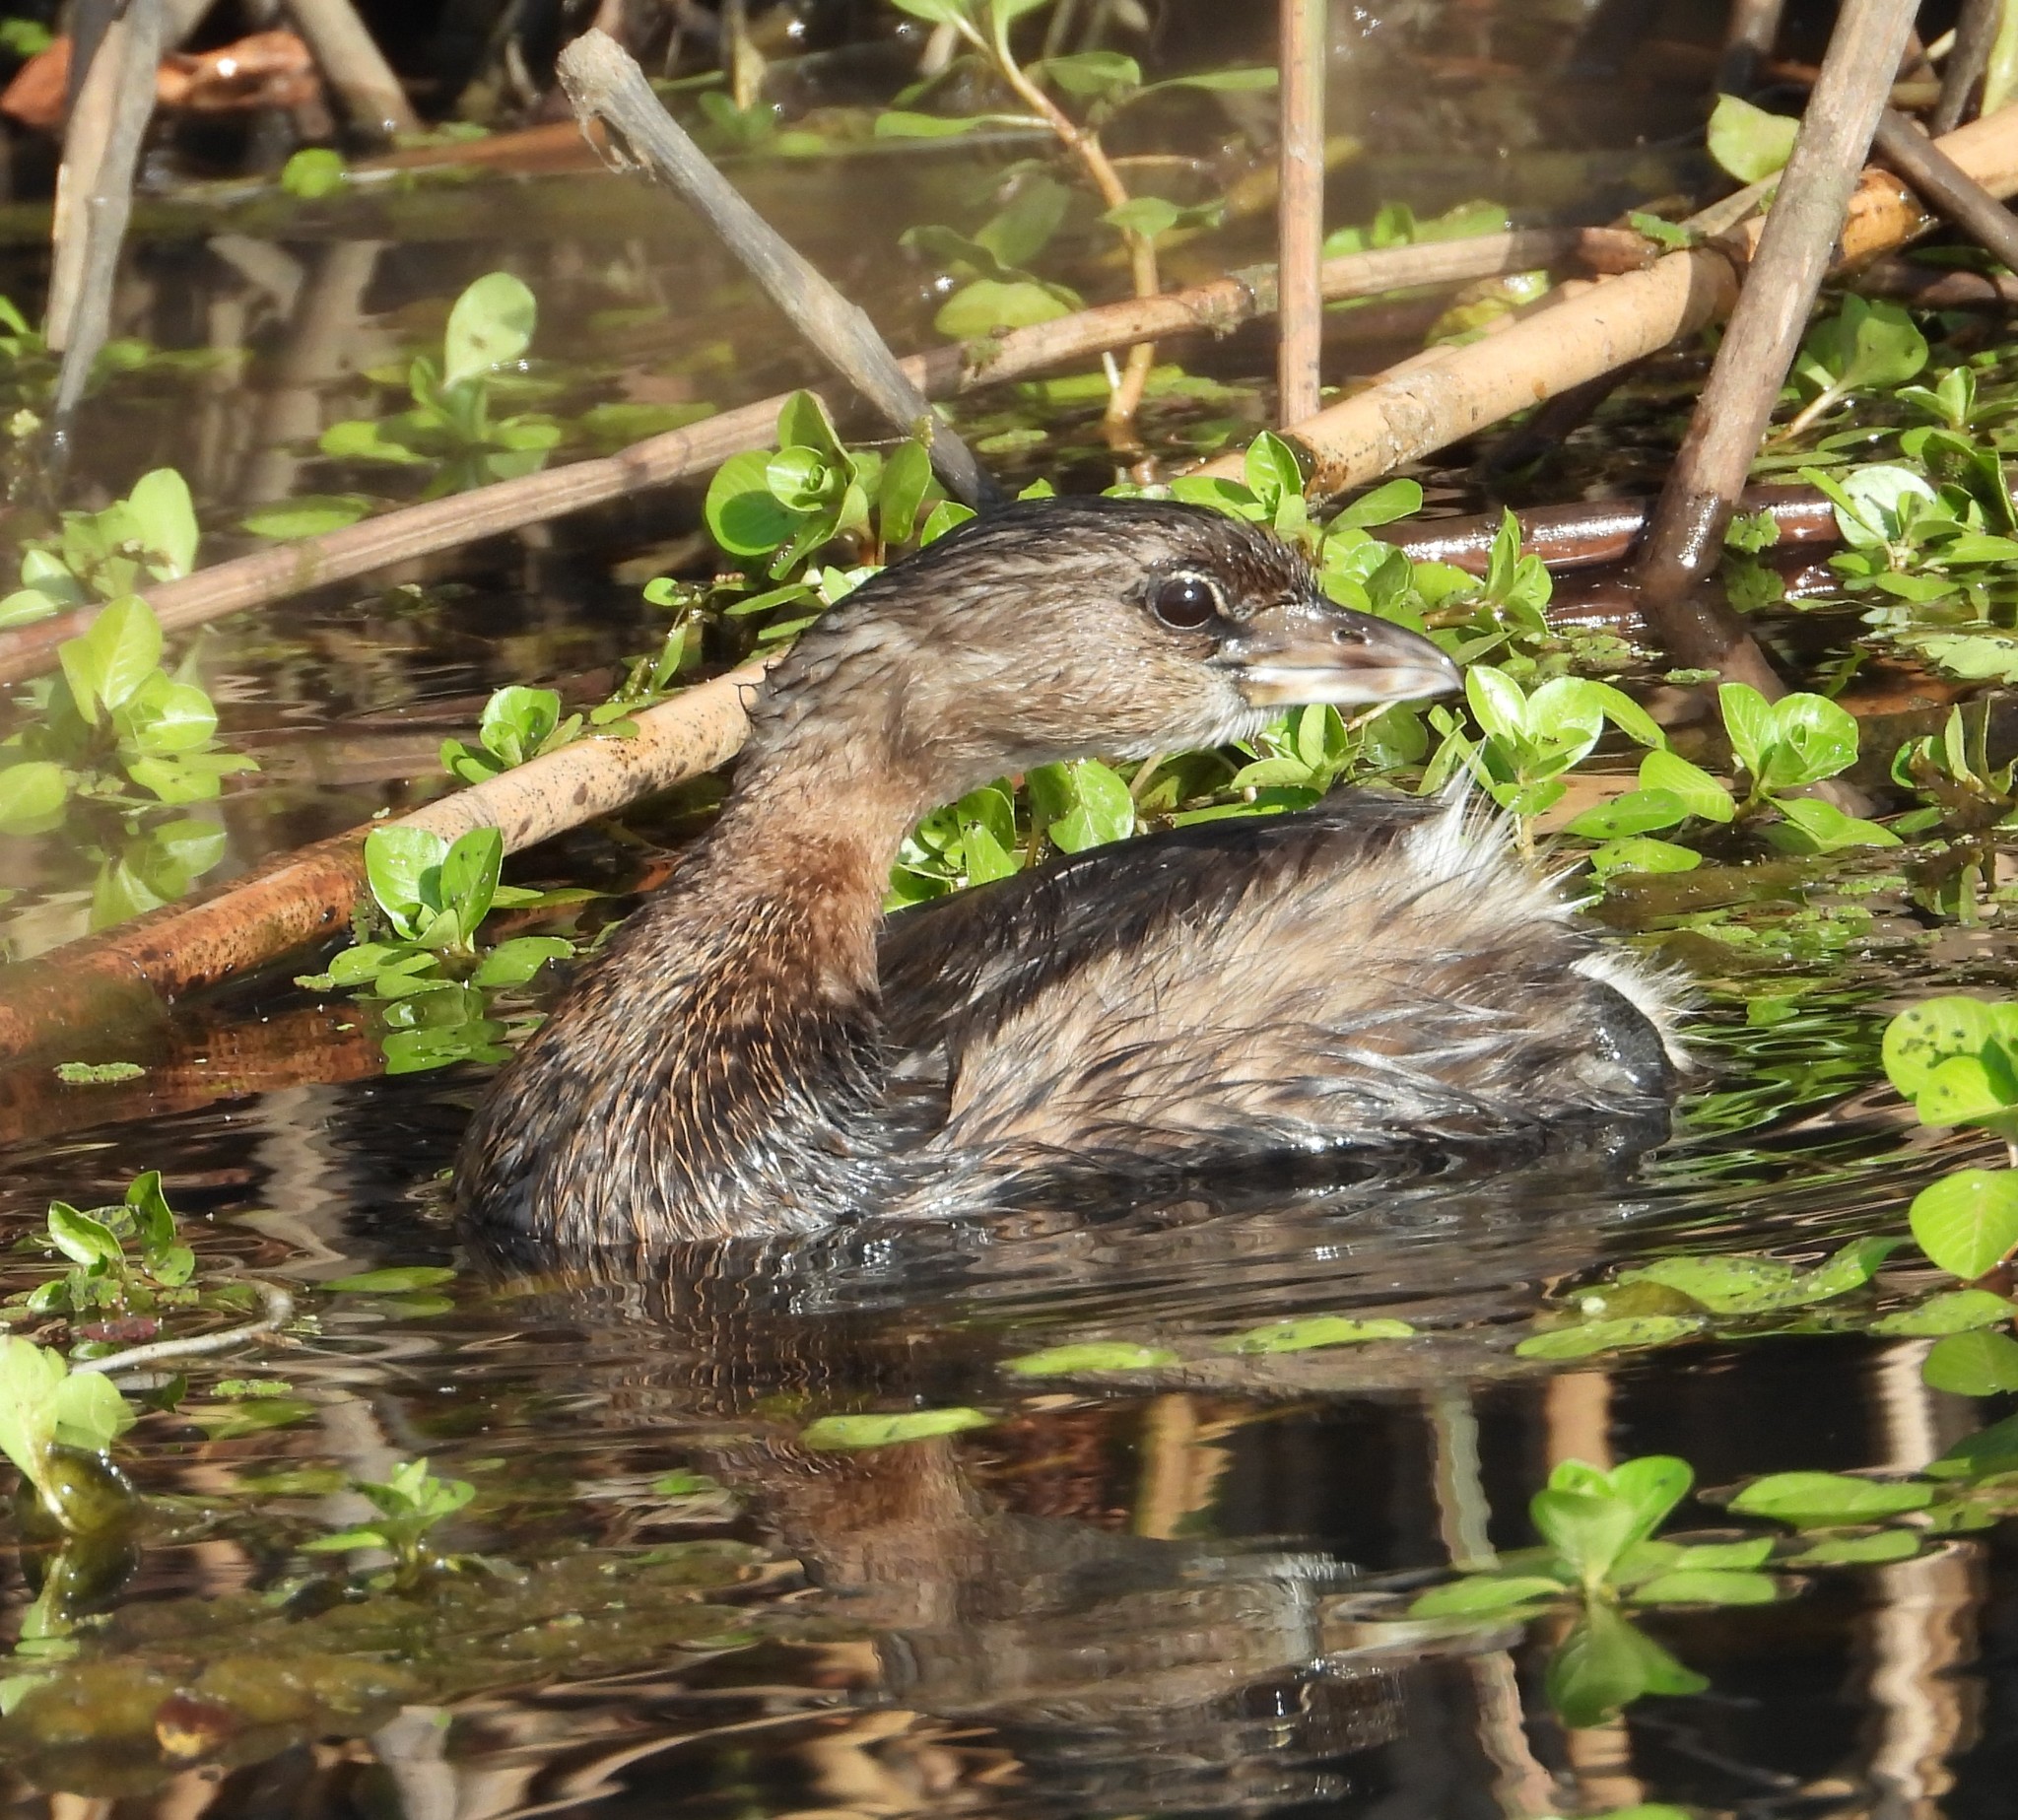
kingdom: Animalia
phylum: Chordata
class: Aves
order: Podicipediformes
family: Podicipedidae
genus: Podilymbus
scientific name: Podilymbus podiceps
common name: Pied-billed grebe
